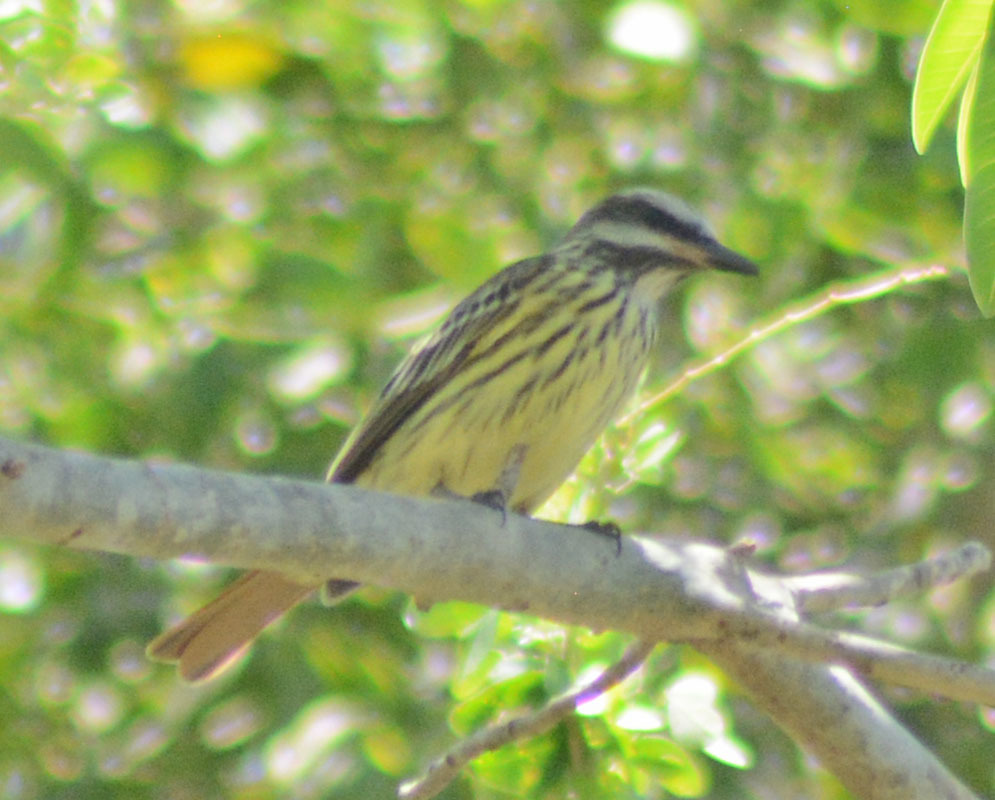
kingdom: Animalia
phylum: Chordata
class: Aves
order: Passeriformes
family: Tyrannidae
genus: Myiodynastes
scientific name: Myiodynastes luteiventris
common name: Sulphur-bellied flycatcher
